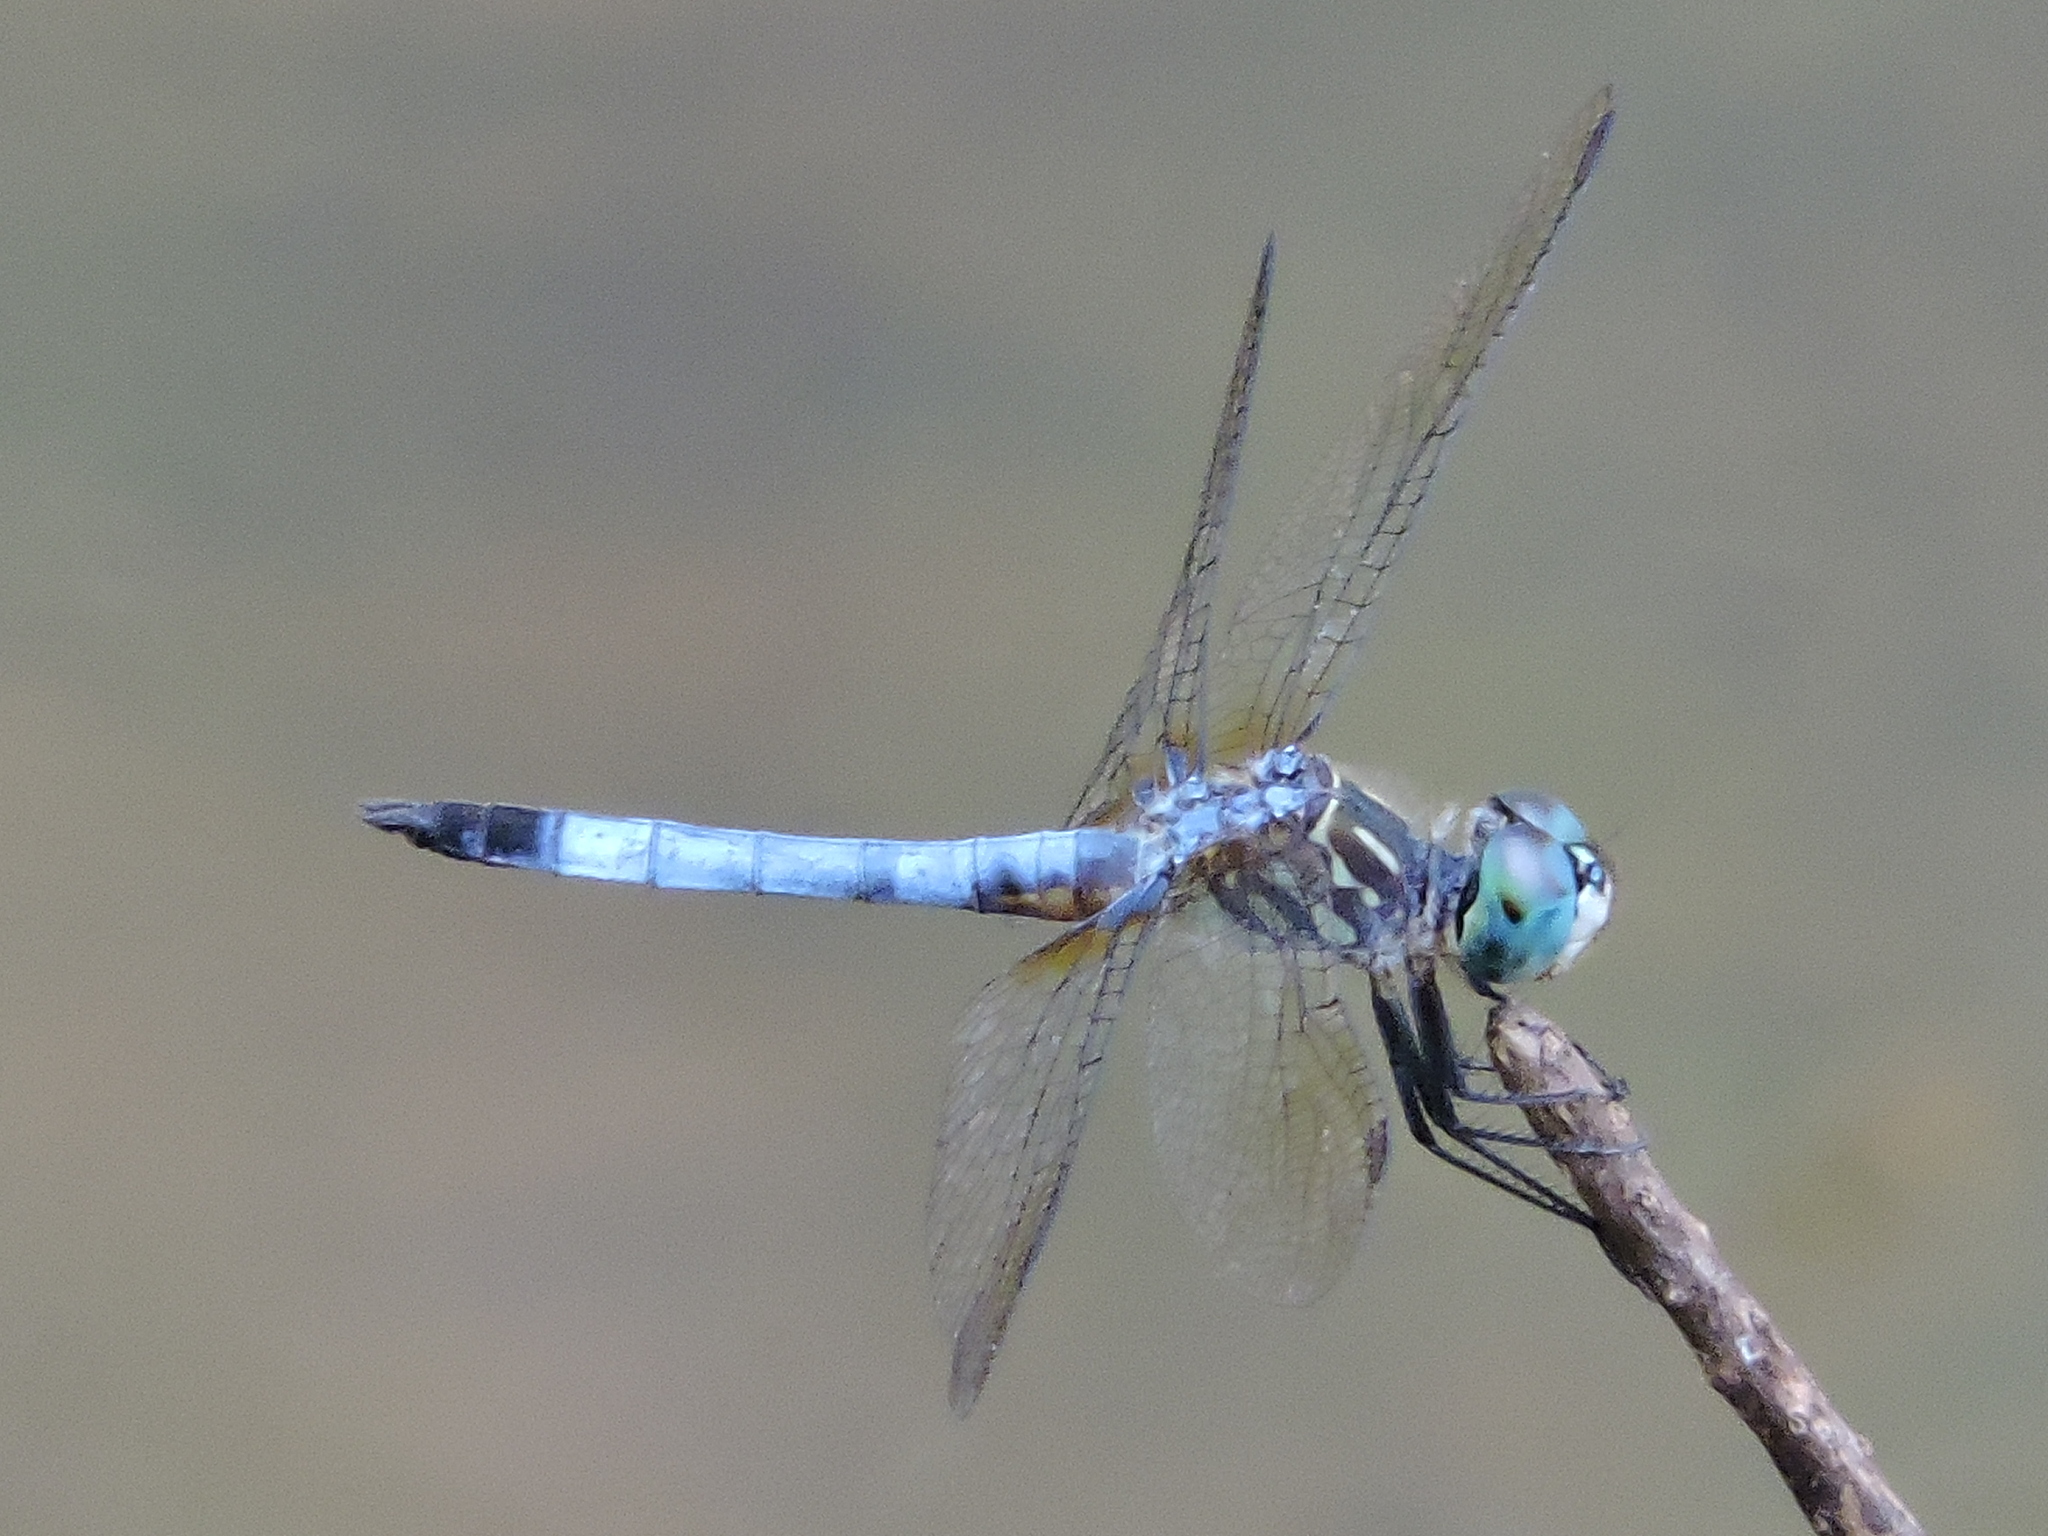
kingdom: Animalia
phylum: Arthropoda
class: Insecta
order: Odonata
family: Libellulidae
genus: Pachydiplax
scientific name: Pachydiplax longipennis
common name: Blue dasher
